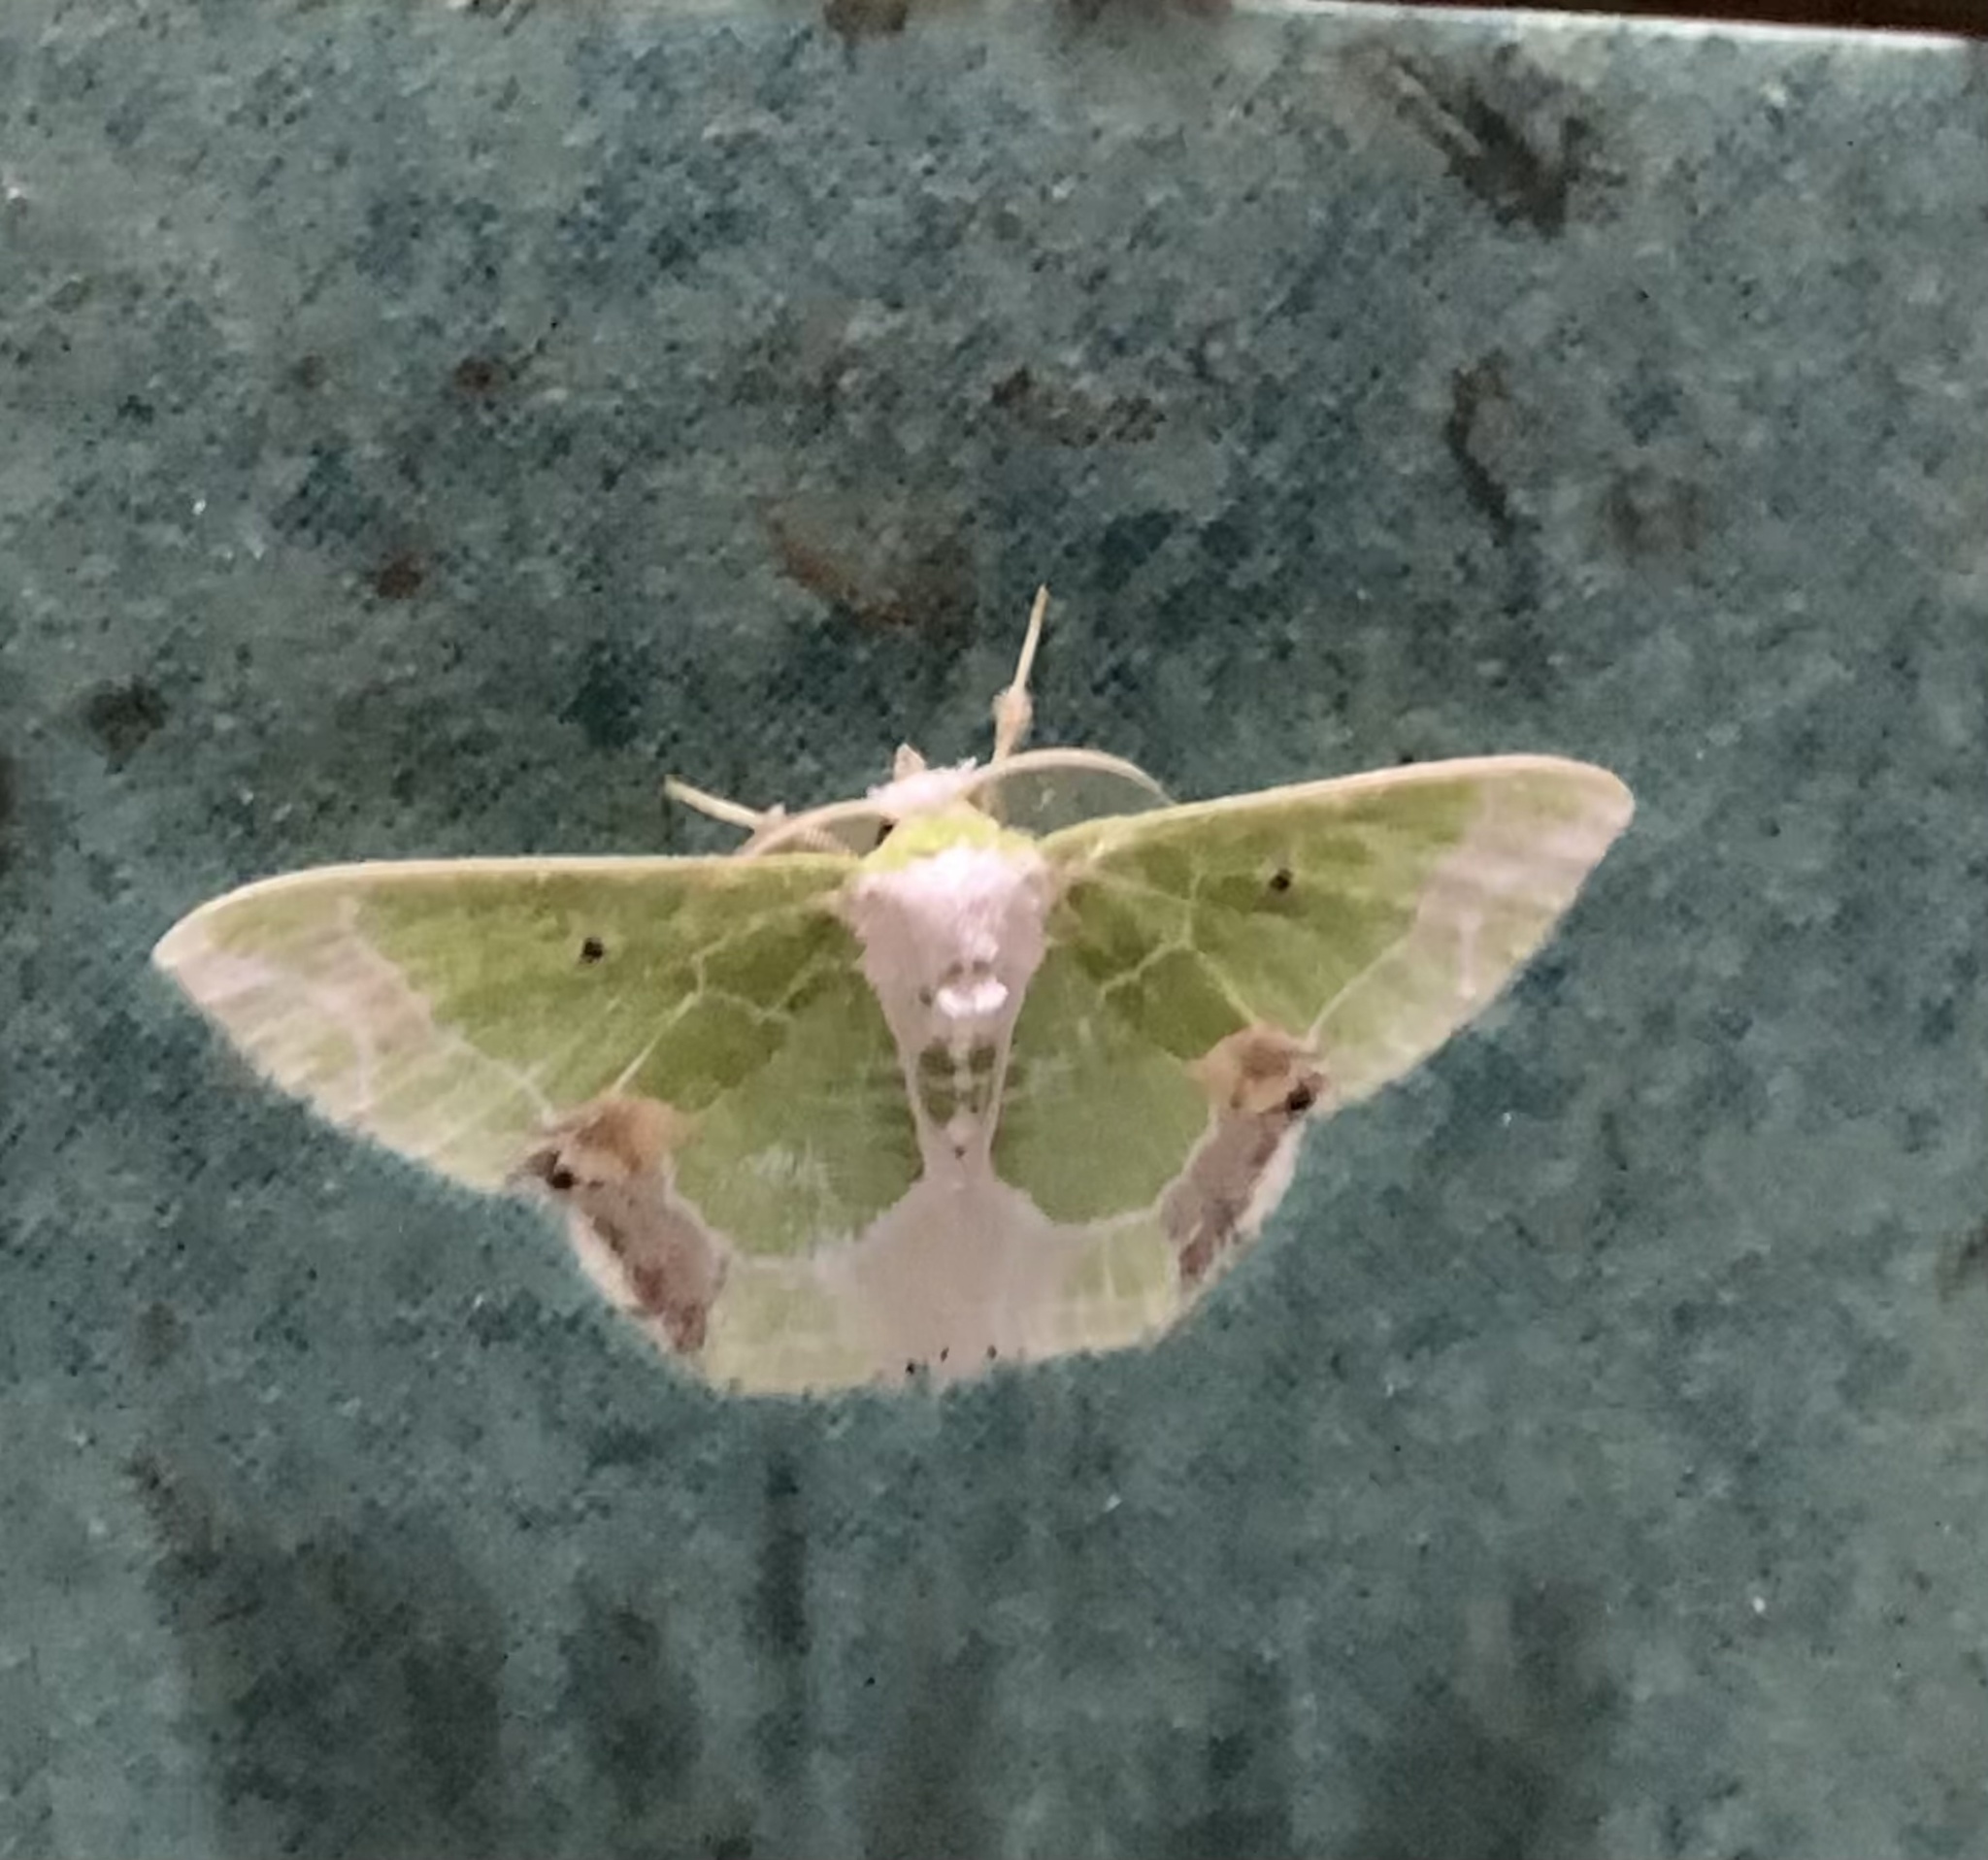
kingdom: Animalia
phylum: Arthropoda
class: Insecta
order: Lepidoptera
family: Geometridae
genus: Protuliocnemis
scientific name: Protuliocnemis partita
